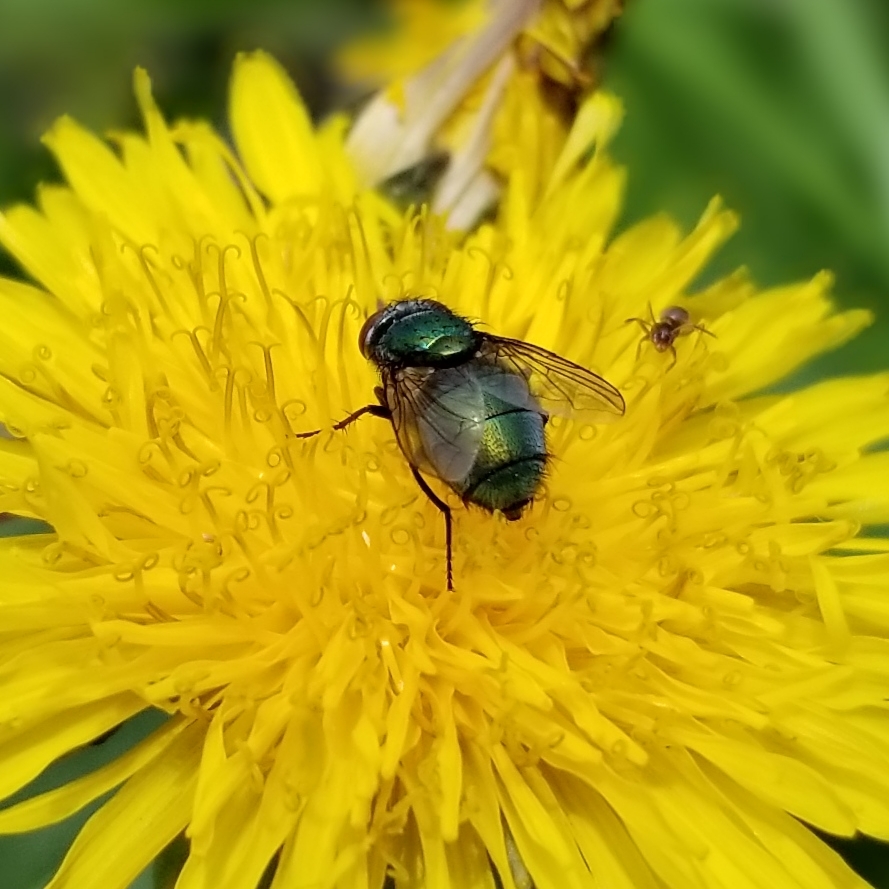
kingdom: Animalia
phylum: Arthropoda
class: Insecta
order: Diptera
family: Calliphoridae
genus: Lucilia
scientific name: Lucilia sericata
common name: Blow fly
